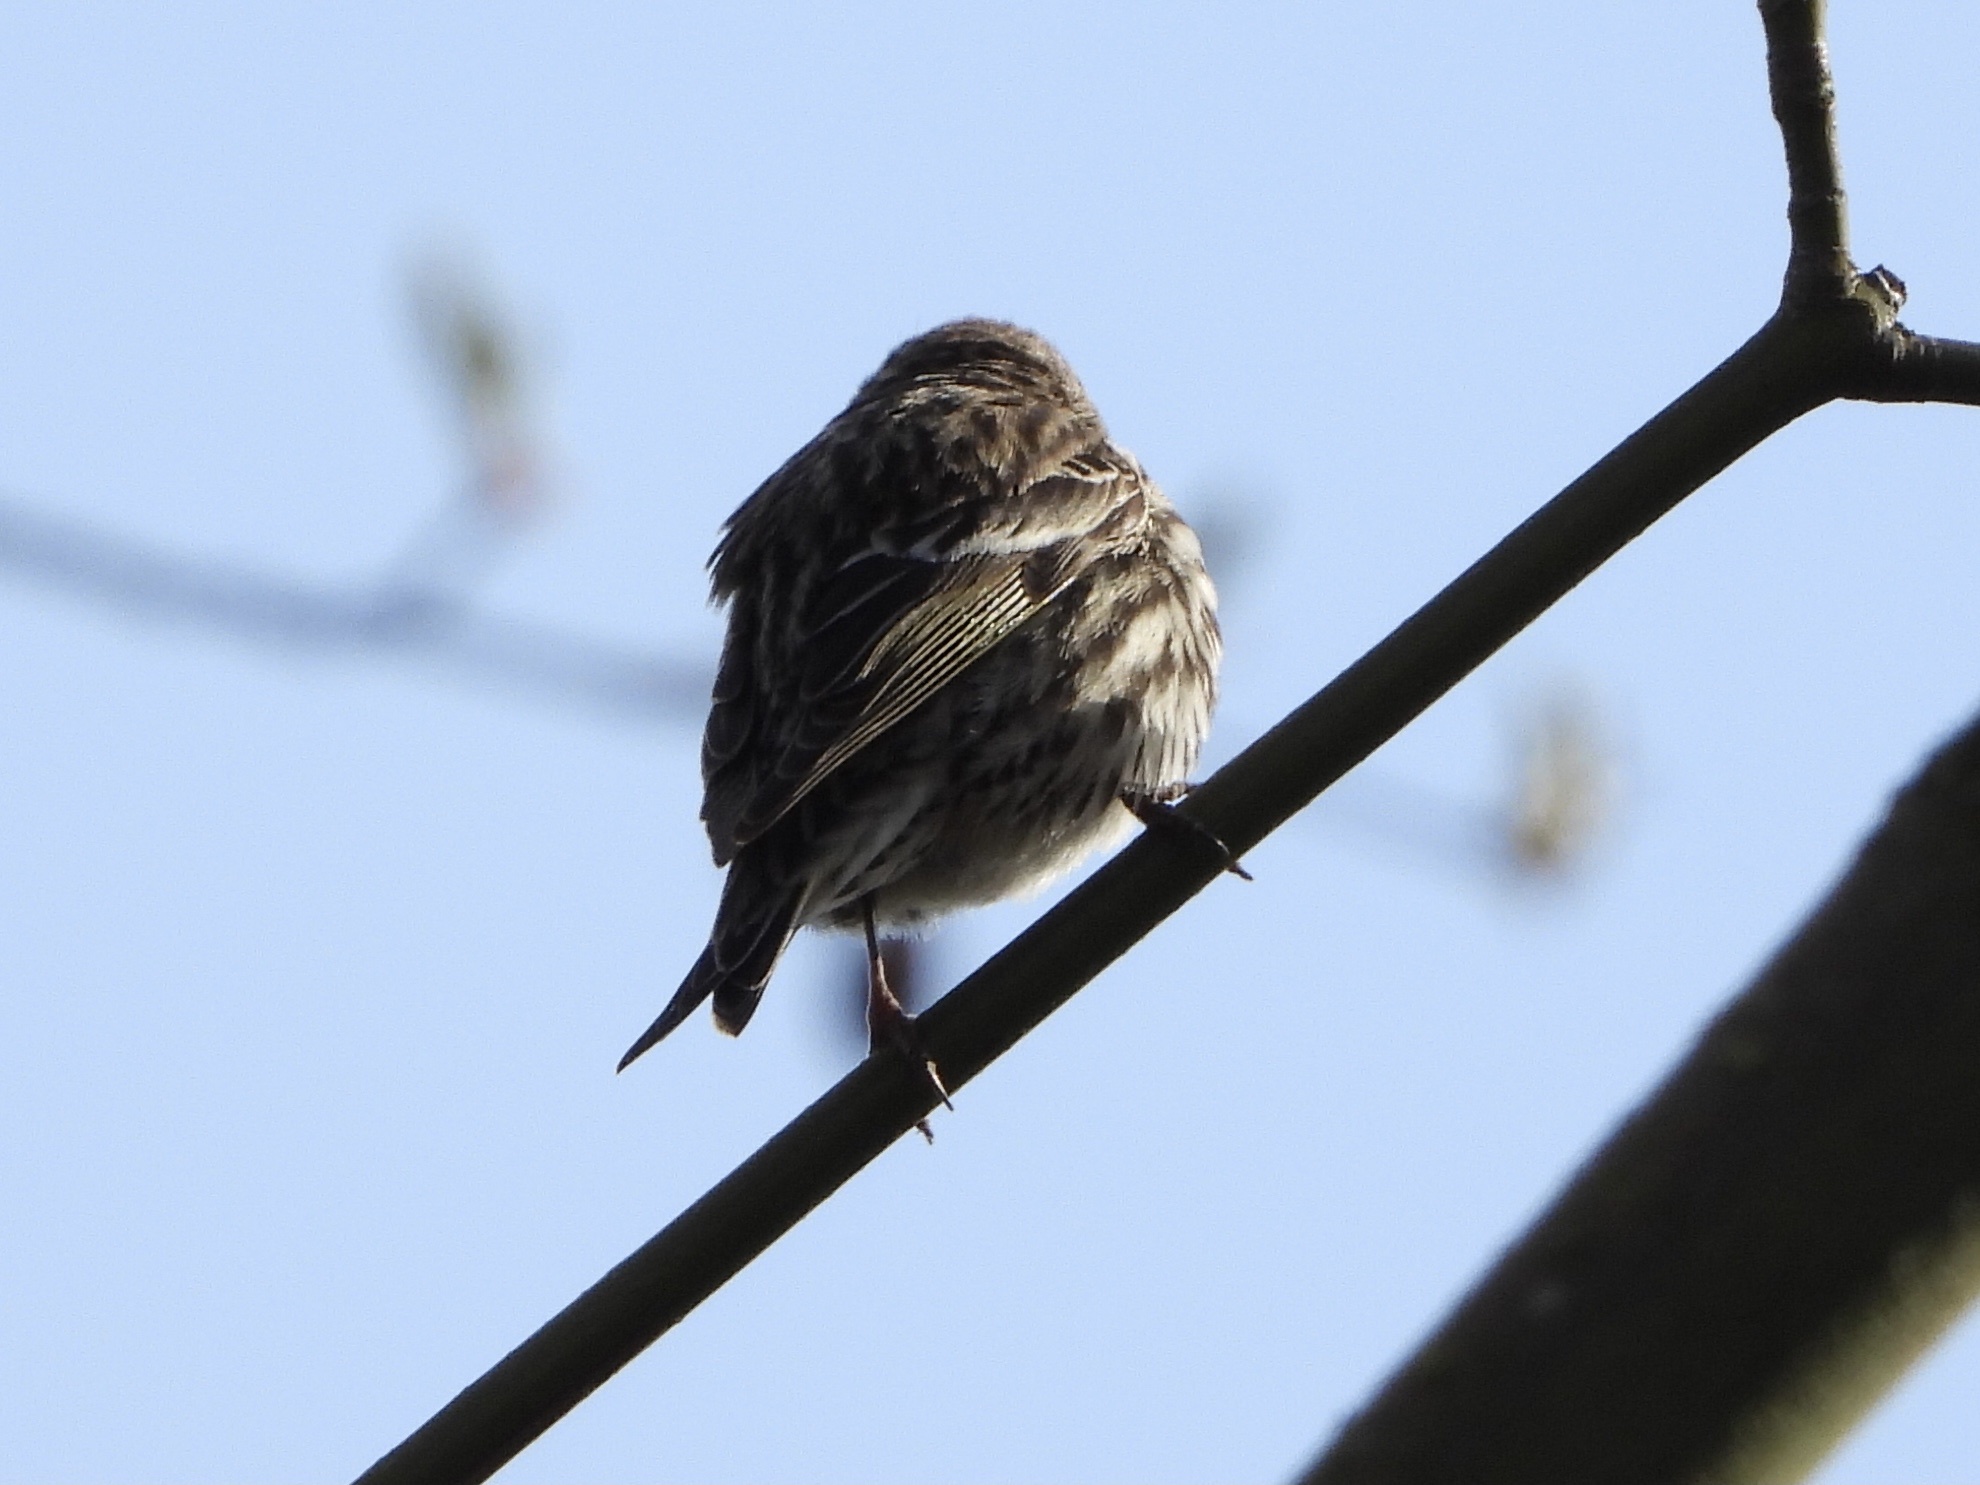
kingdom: Animalia
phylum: Chordata
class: Aves
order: Passeriformes
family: Fringillidae
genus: Spinus
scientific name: Spinus pinus
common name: Pine siskin
